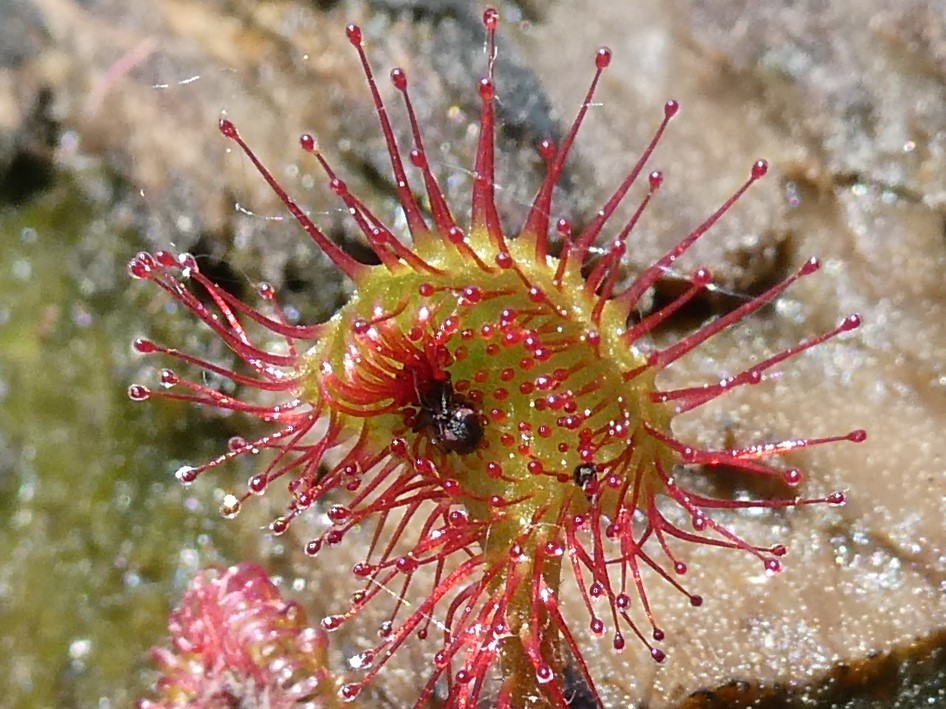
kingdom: Plantae
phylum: Tracheophyta
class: Magnoliopsida
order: Caryophyllales
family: Droseraceae
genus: Drosera
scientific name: Drosera rotundifolia
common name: Round-leaved sundew
